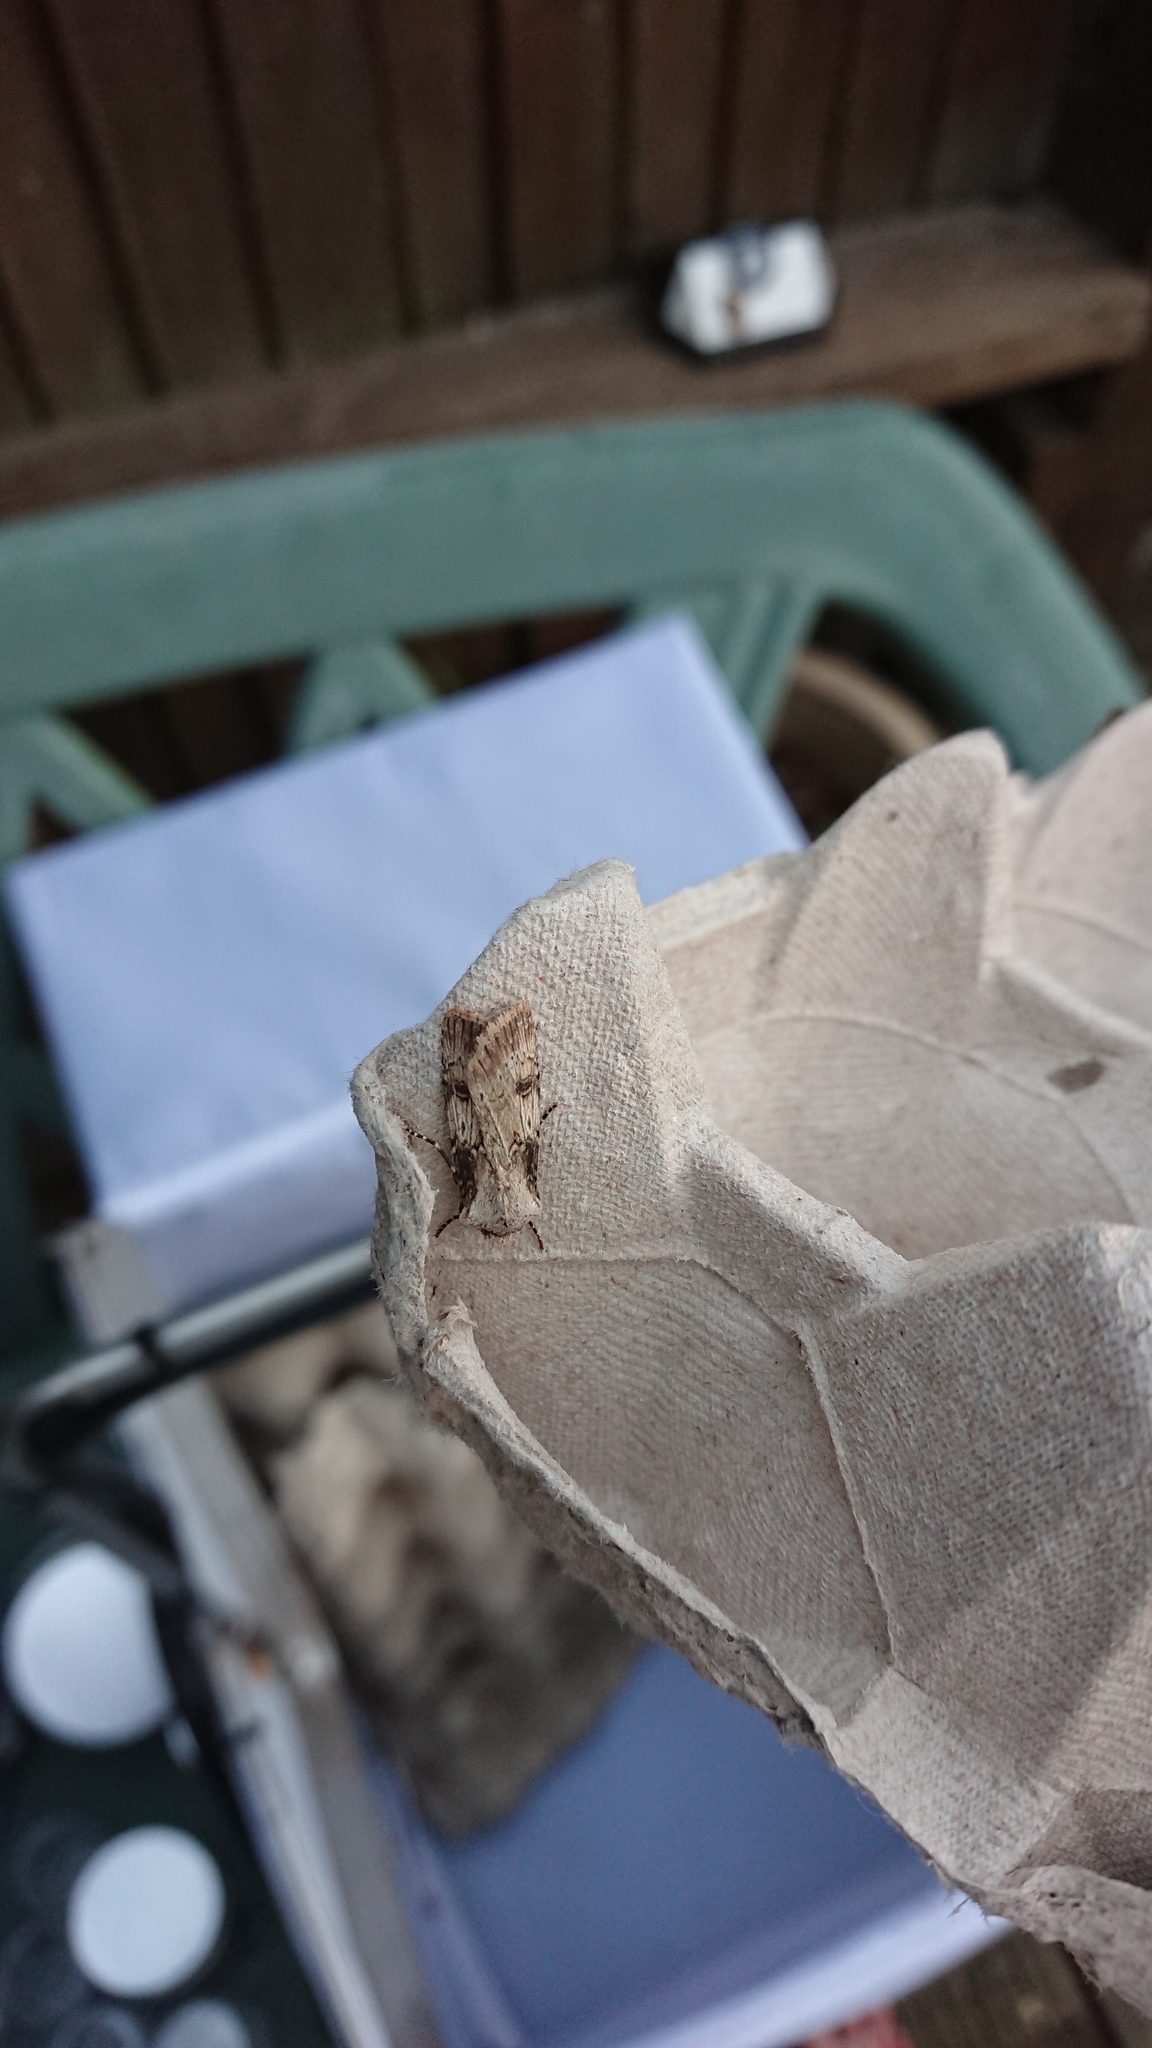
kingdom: Animalia
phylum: Arthropoda
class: Insecta
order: Lepidoptera
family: Noctuidae
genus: Agrotis
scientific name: Agrotis puta
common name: Shuttle-shaped dart
